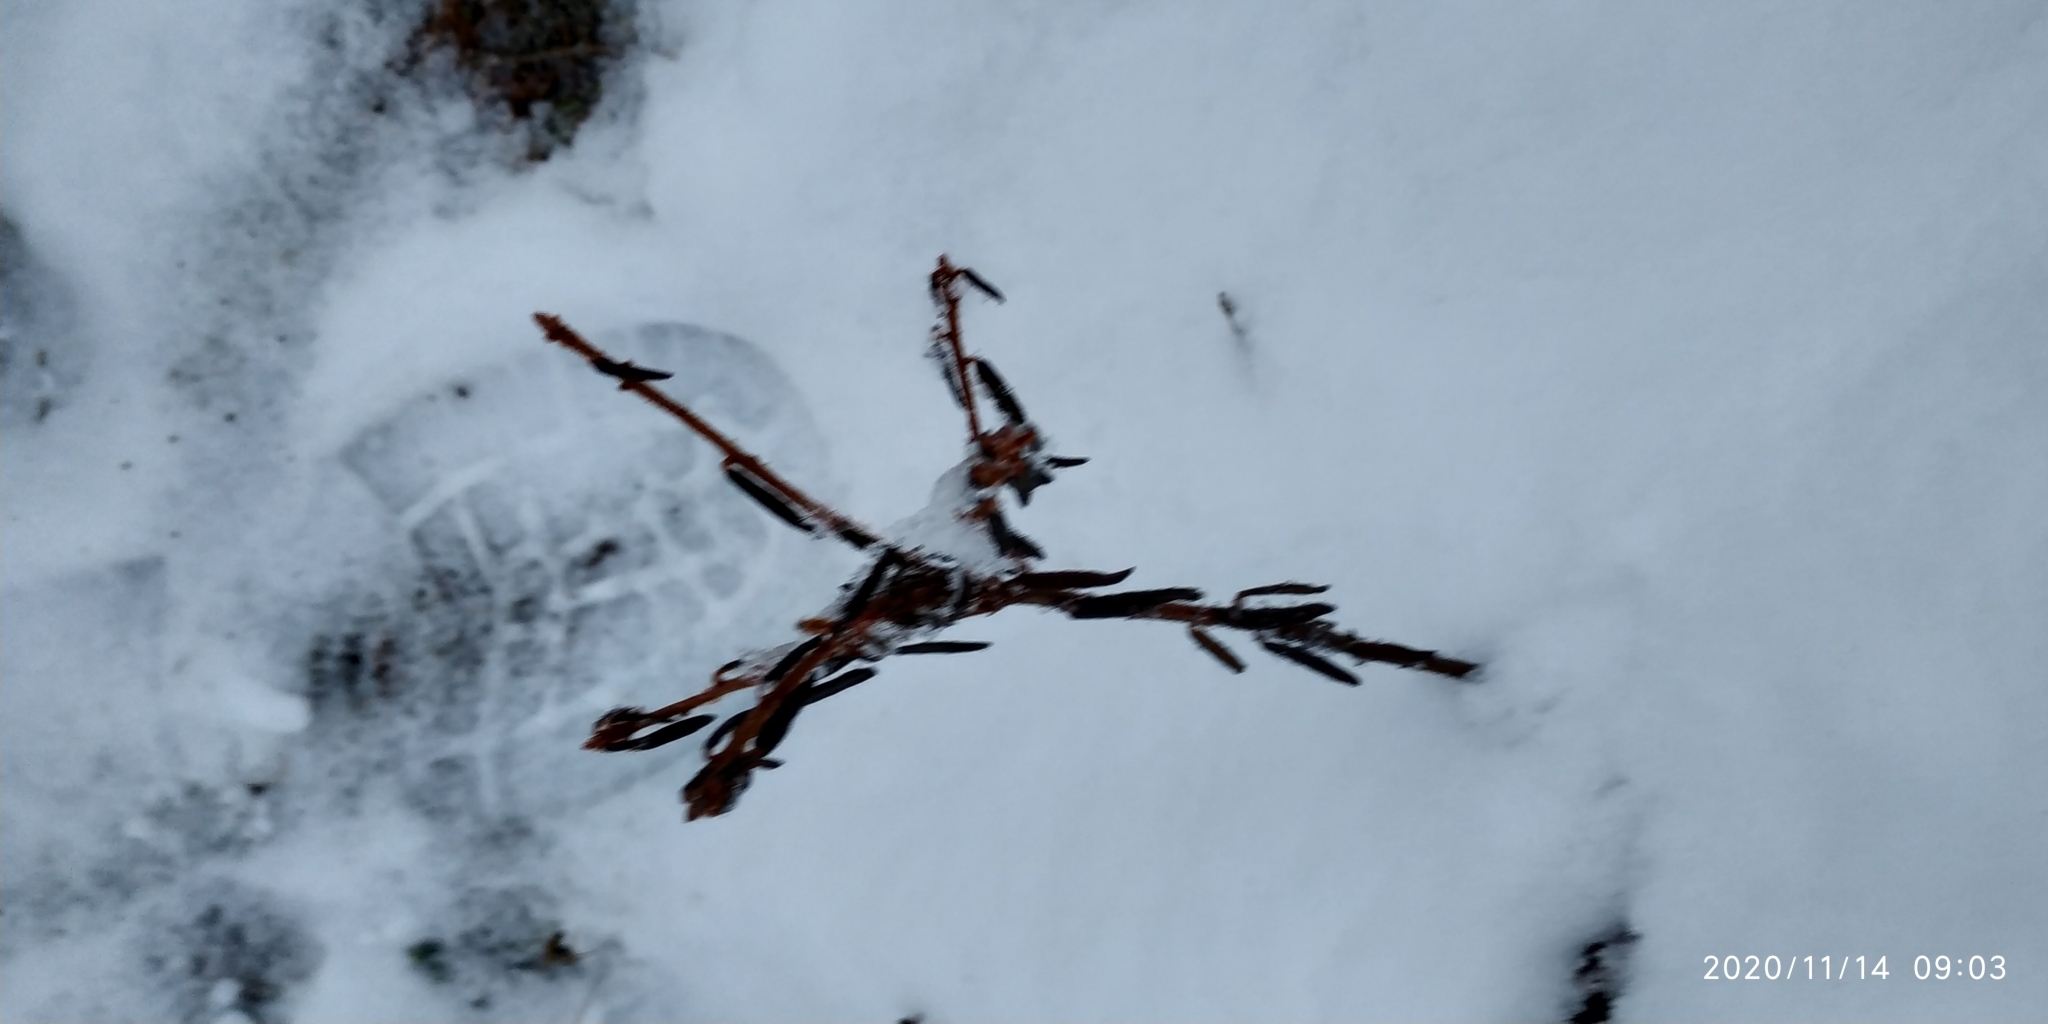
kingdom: Plantae
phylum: Tracheophyta
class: Magnoliopsida
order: Ericales
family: Ericaceae
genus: Rhododendron
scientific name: Rhododendron tomentosum
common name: Marsh labrador tea
